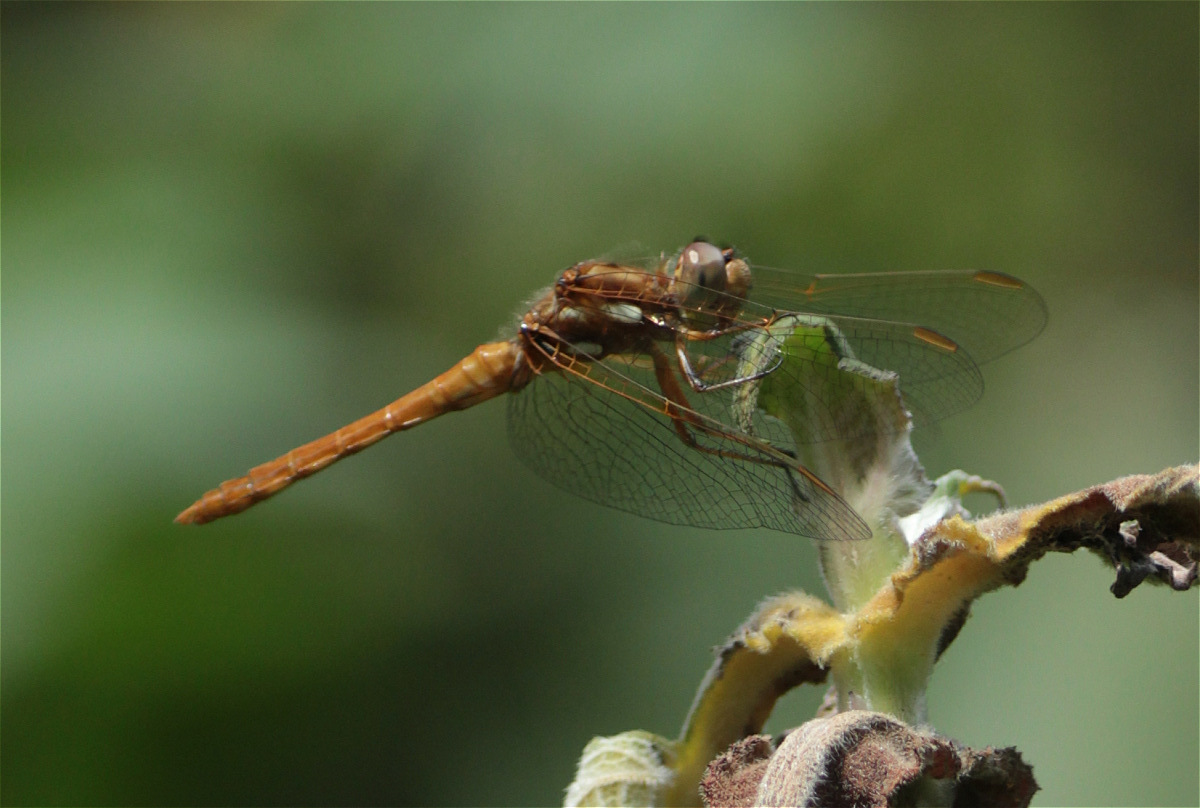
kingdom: Animalia
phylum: Arthropoda
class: Insecta
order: Odonata
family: Libellulidae
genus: Sympetrum
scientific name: Sympetrum gilvum
